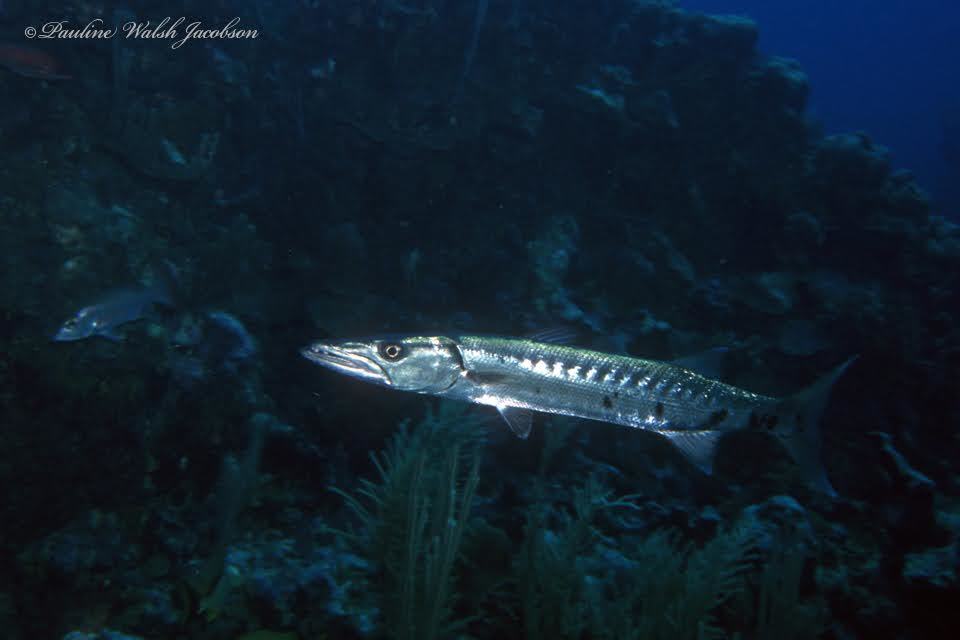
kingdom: Animalia
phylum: Chordata
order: Perciformes
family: Sphyraenidae
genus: Sphyraena
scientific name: Sphyraena barracuda
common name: Great barracuda
